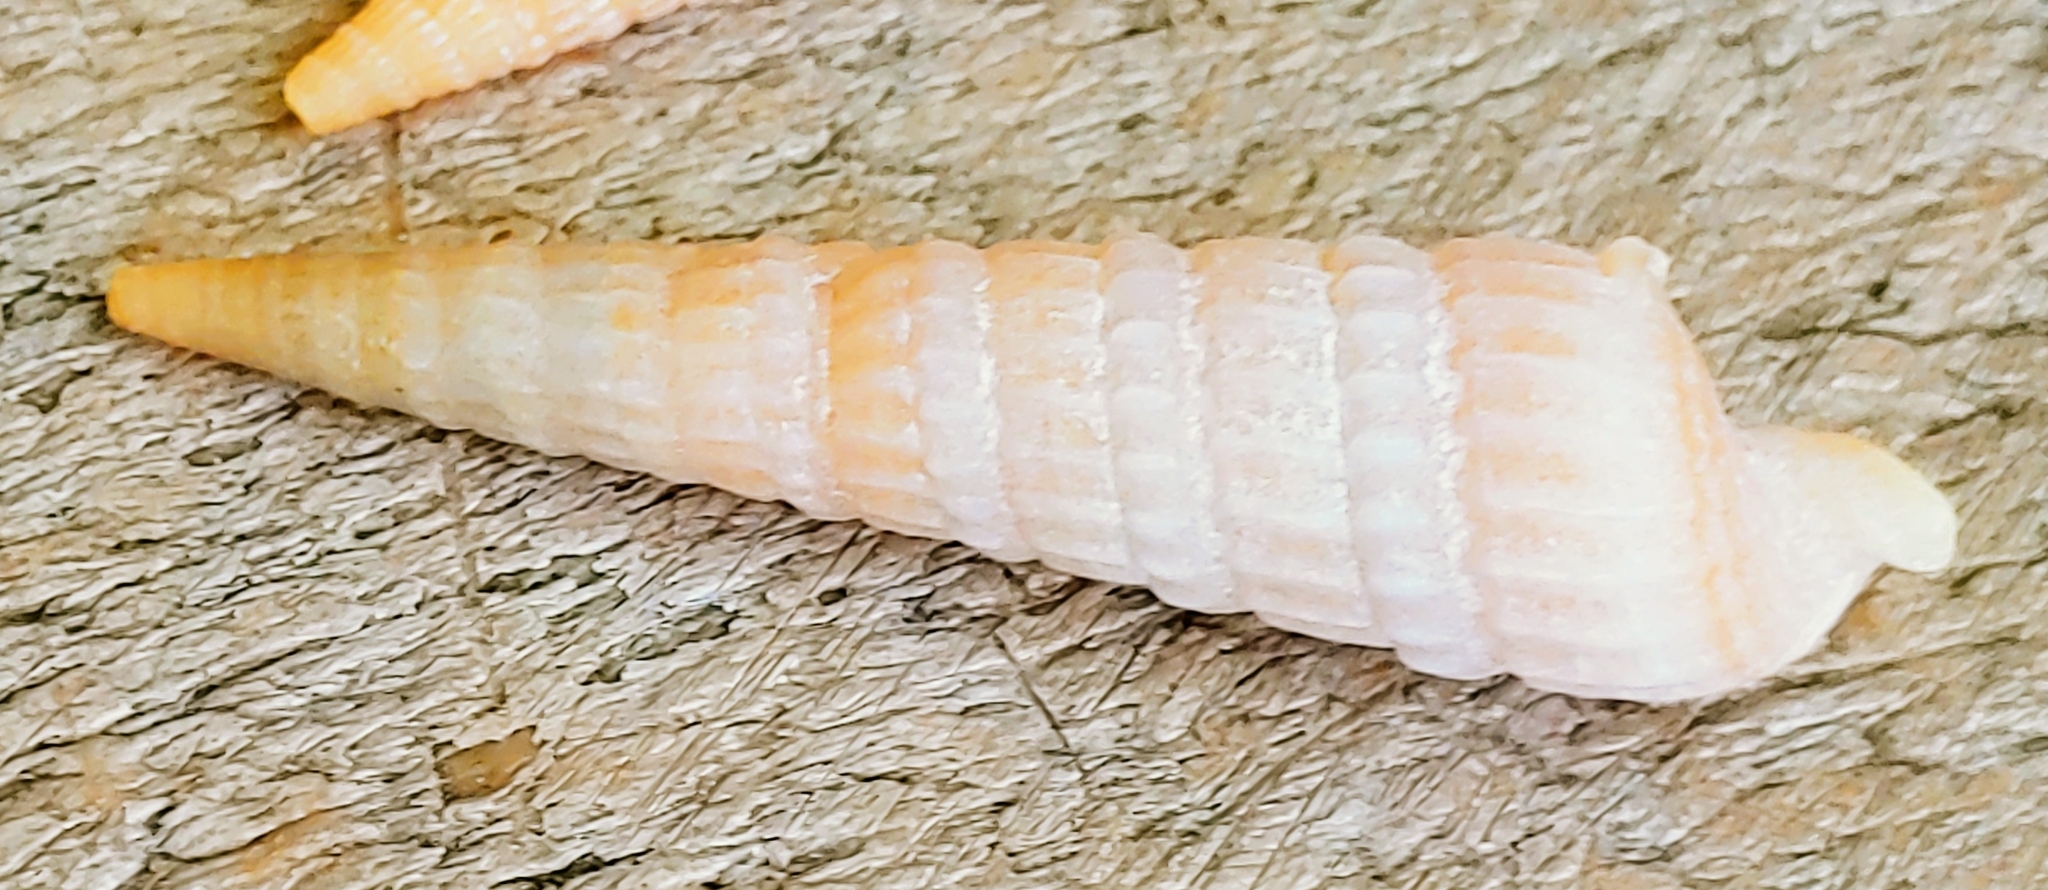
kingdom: Animalia
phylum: Mollusca
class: Gastropoda
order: Neogastropoda
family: Terebridae
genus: Neoterebra
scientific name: Neoterebra dislocata
